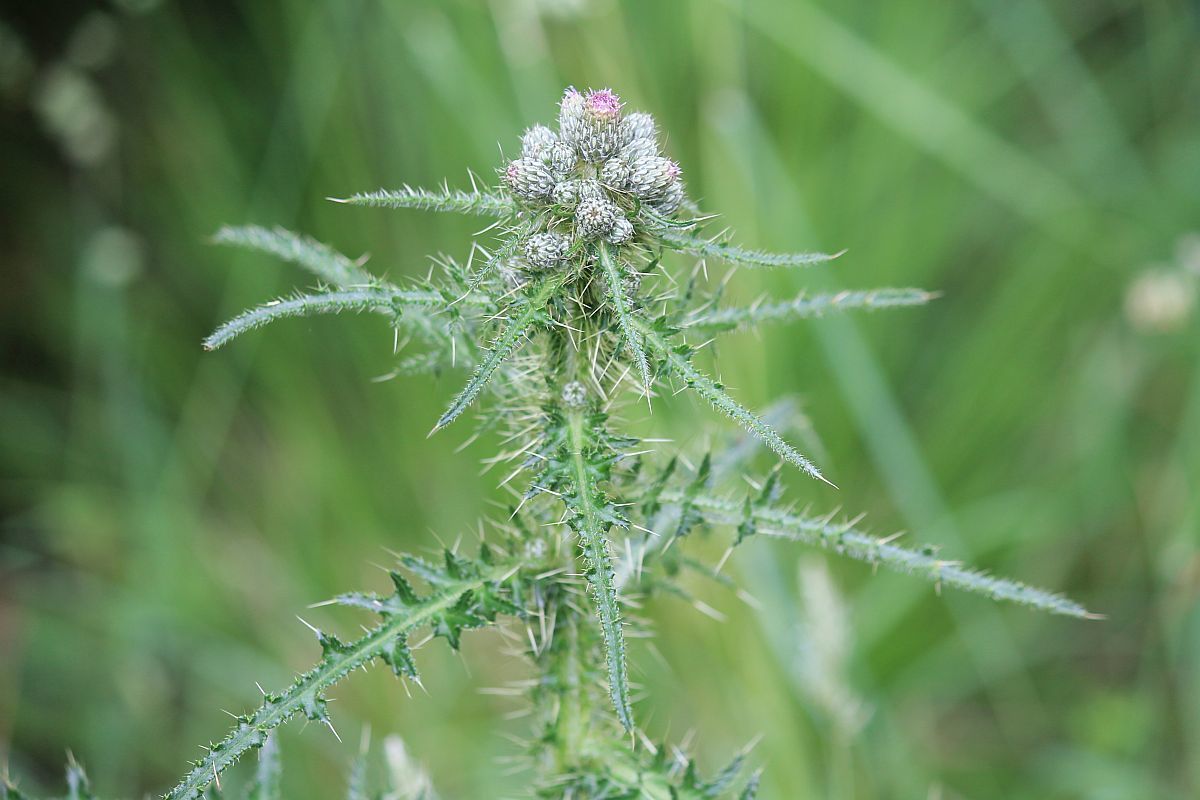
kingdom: Plantae
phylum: Tracheophyta
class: Magnoliopsida
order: Asterales
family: Asteraceae
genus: Cirsium
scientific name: Cirsium palustre
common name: Marsh thistle
